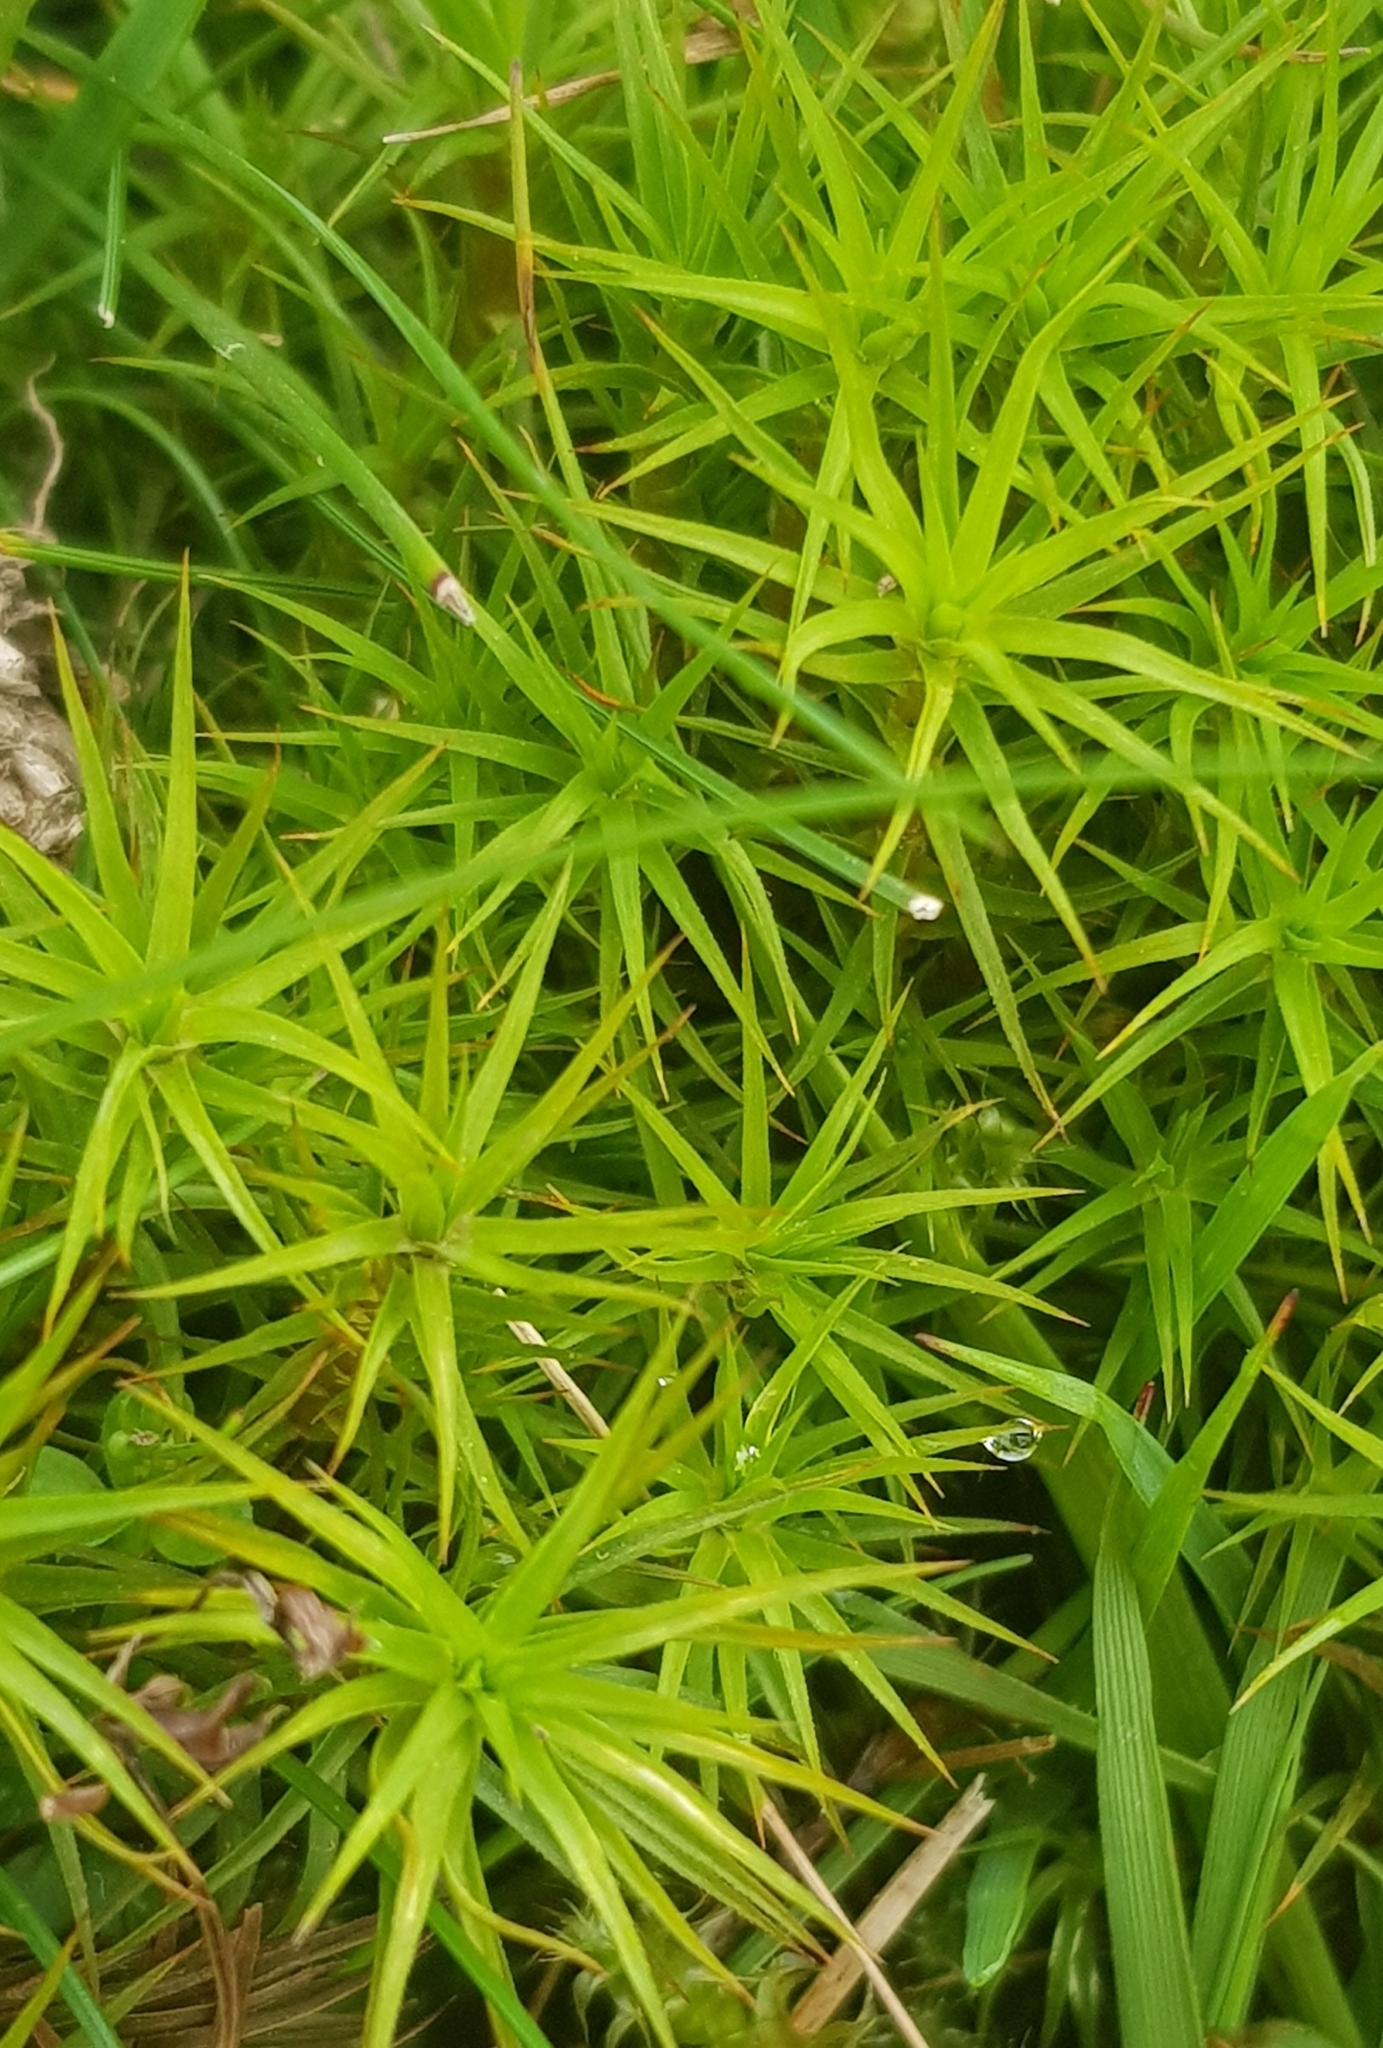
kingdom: Plantae
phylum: Bryophyta
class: Polytrichopsida
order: Polytrichales
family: Polytrichaceae
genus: Polytrichum
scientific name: Polytrichum commune
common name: Common haircap
